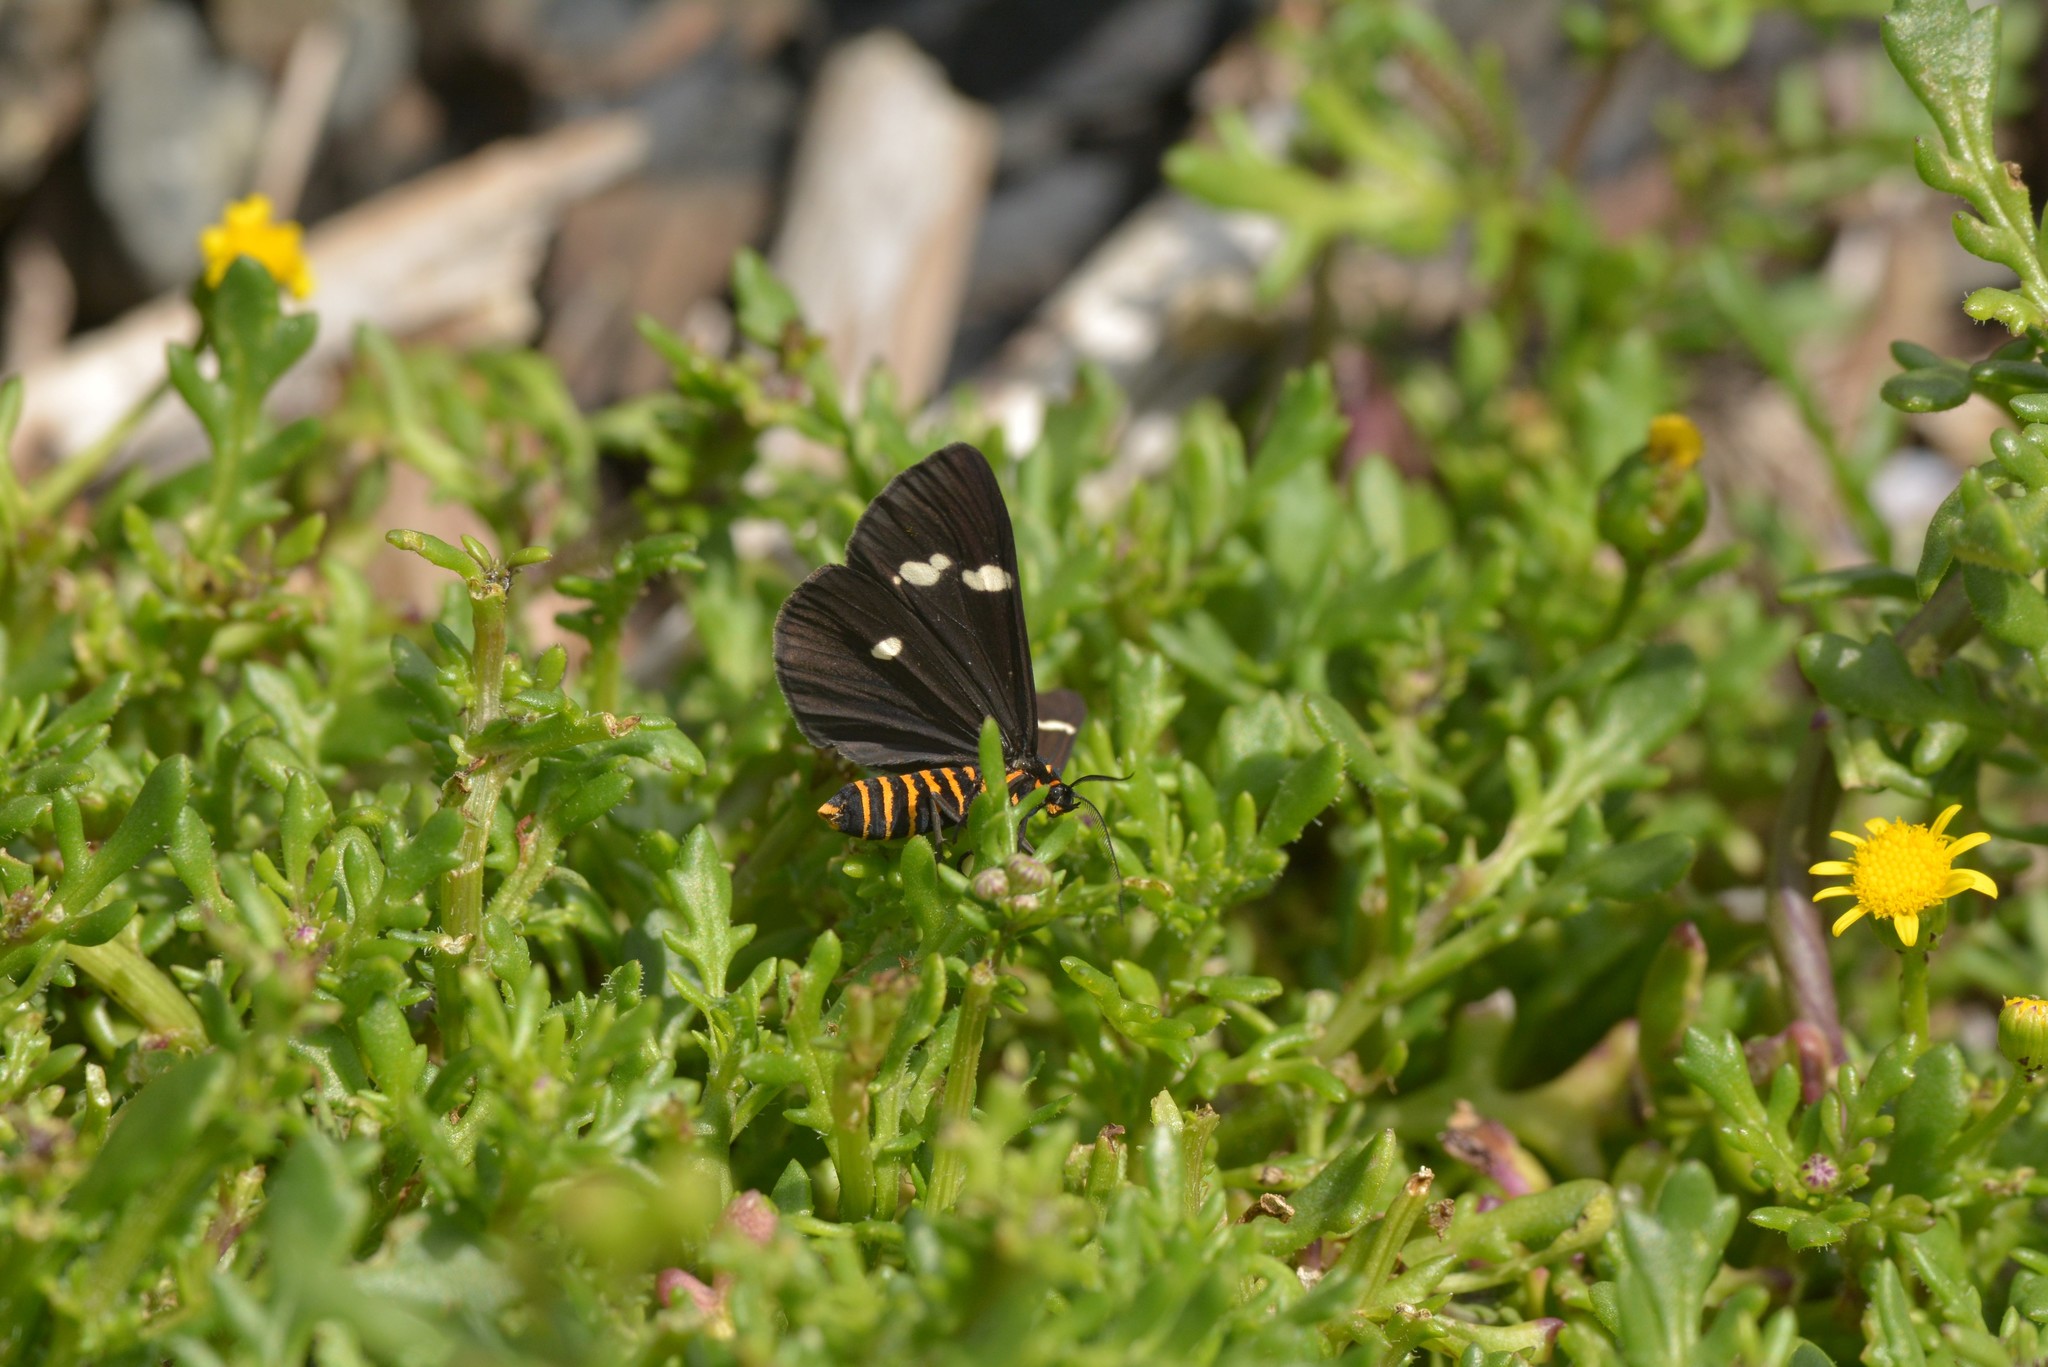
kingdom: Animalia
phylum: Arthropoda
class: Insecta
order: Lepidoptera
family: Erebidae
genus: Nyctemera
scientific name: Nyctemera annulatum
